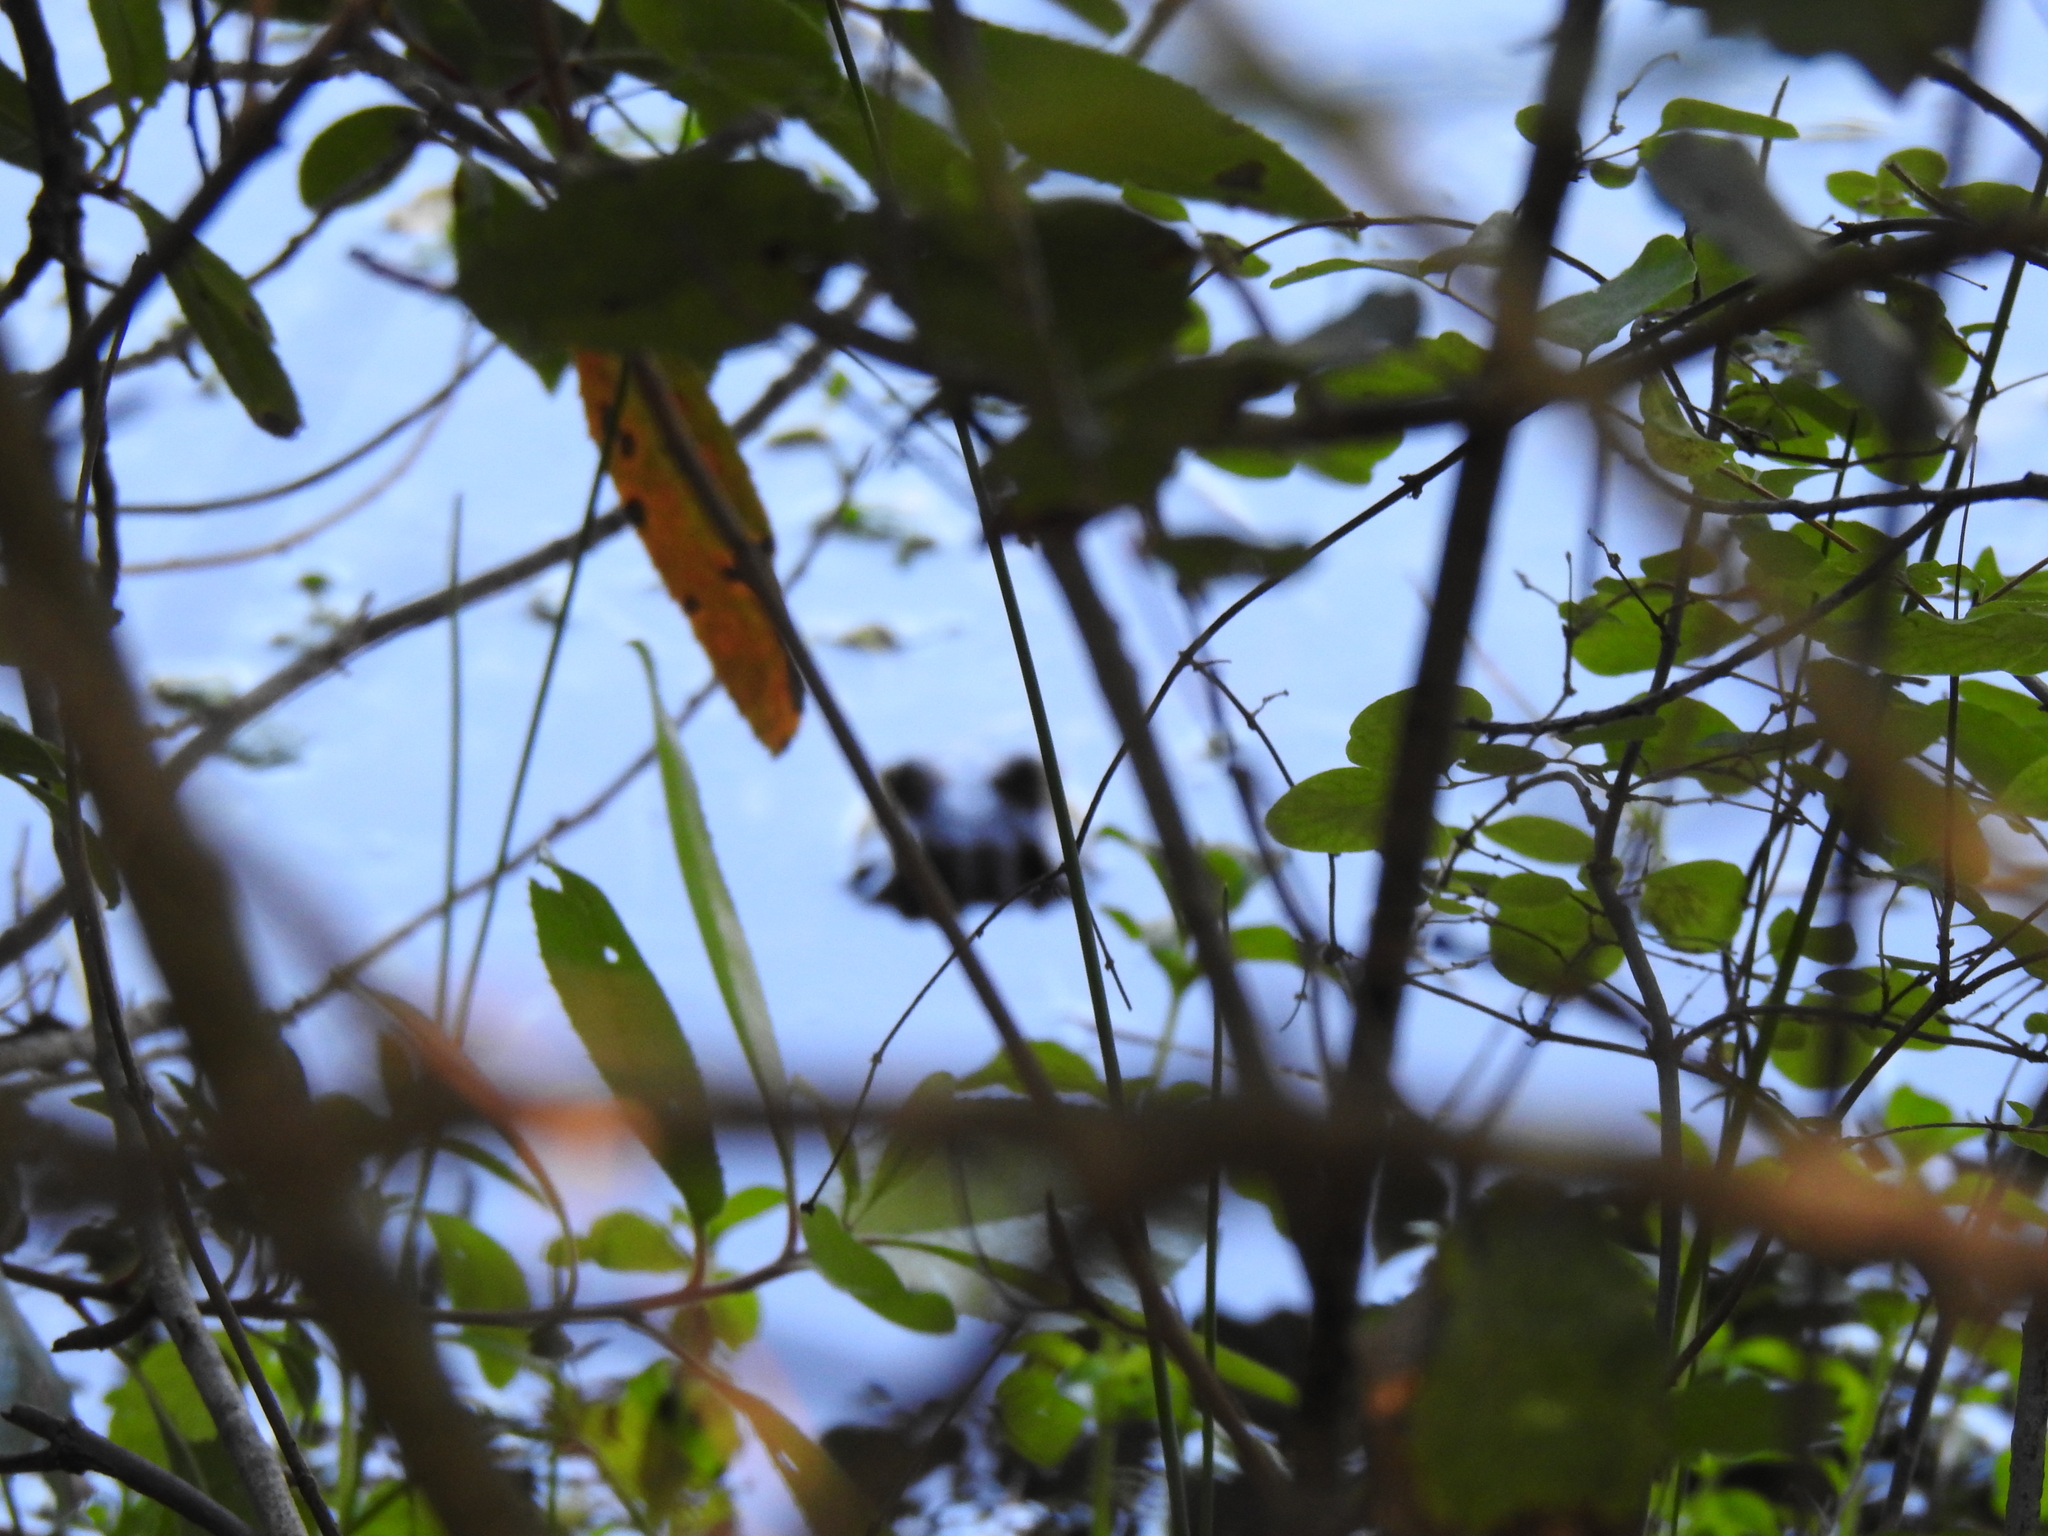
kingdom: Animalia
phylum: Chordata
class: Amphibia
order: Anura
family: Ranidae
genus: Lithobates
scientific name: Lithobates catesbeianus
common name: American bullfrog
